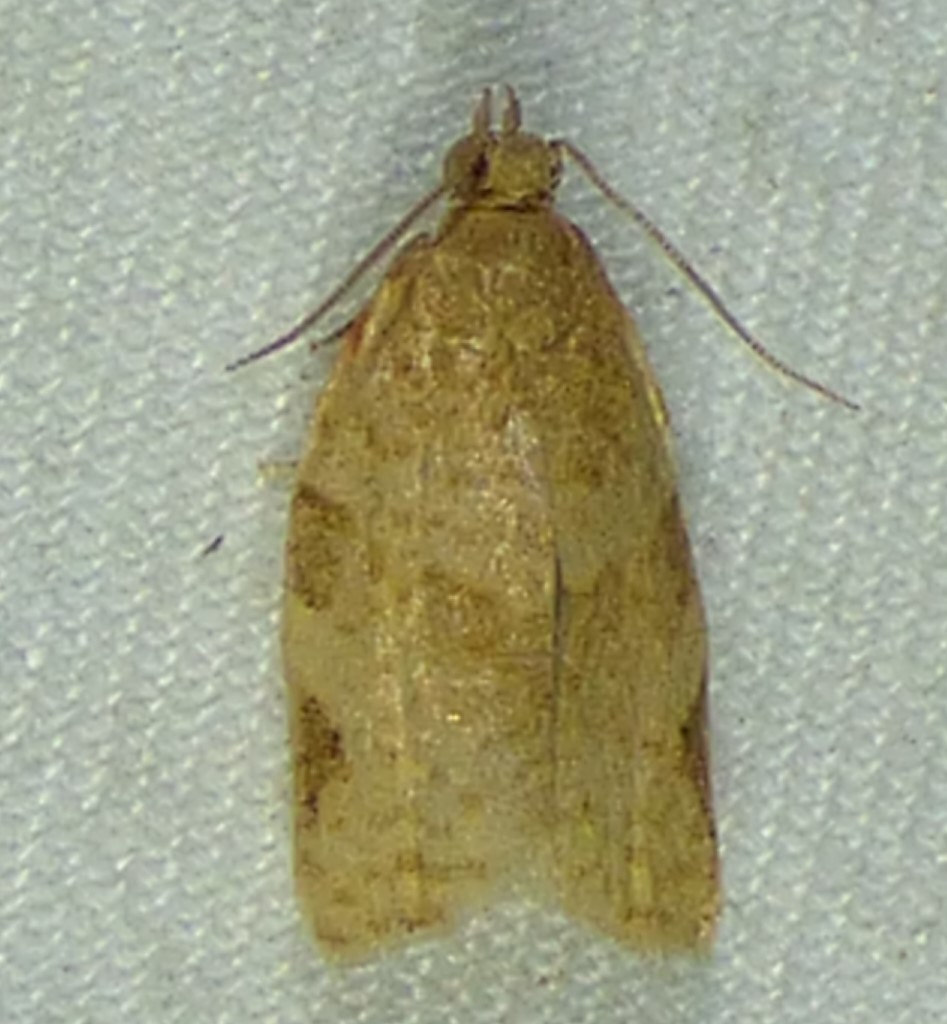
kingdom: Animalia
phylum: Arthropoda
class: Insecta
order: Lepidoptera
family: Tortricidae
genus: Clepsis
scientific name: Clepsis virescana
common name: Greenish apple moth
